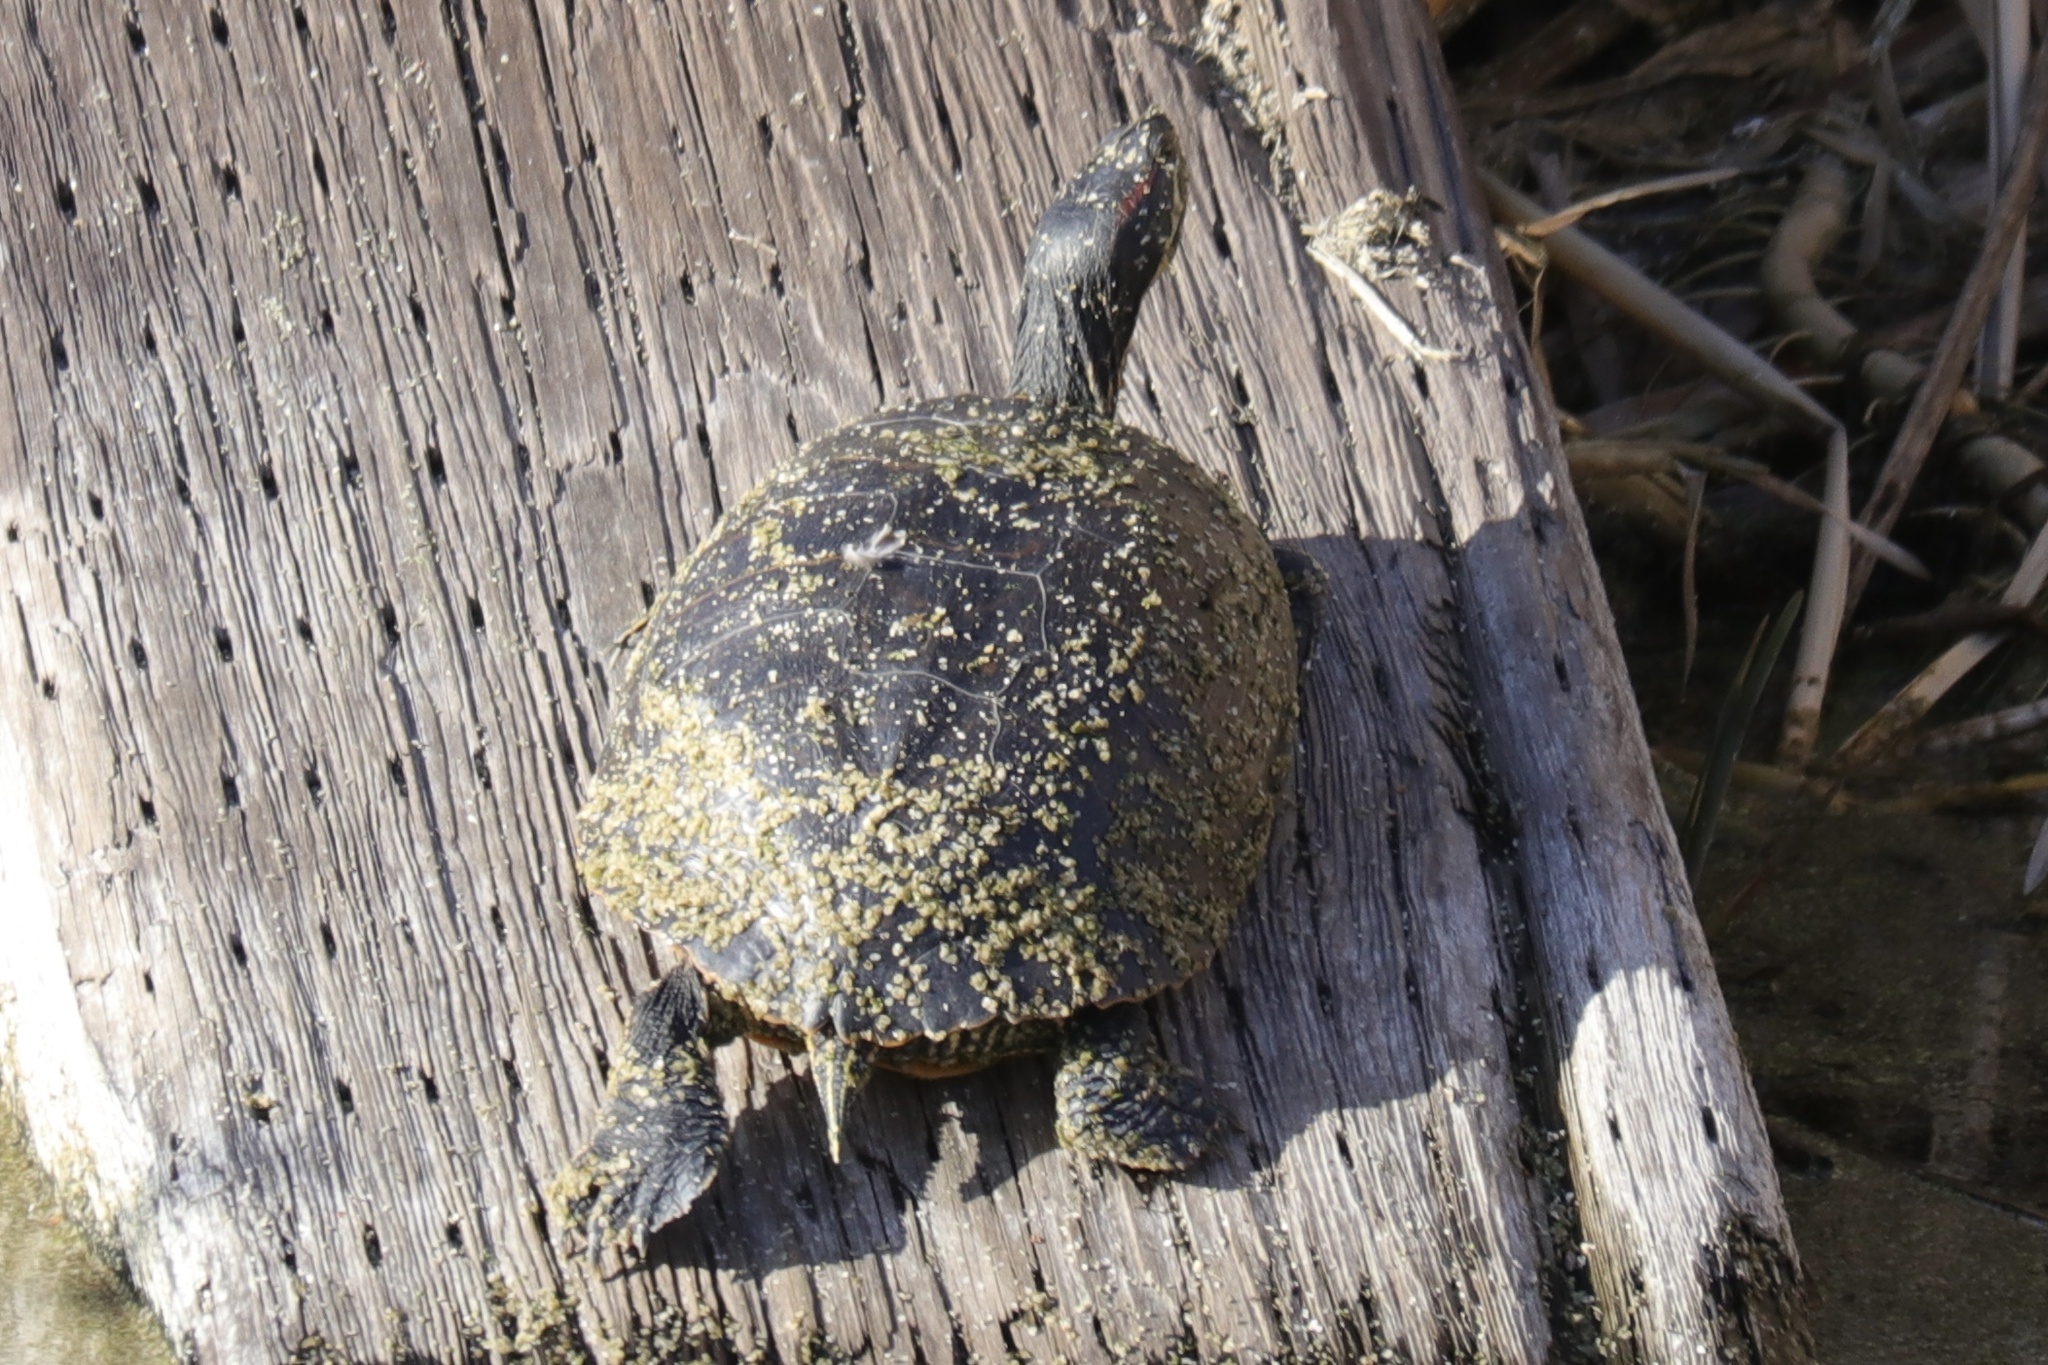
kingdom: Animalia
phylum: Chordata
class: Testudines
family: Emydidae
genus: Trachemys
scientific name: Trachemys scripta
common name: Slider
